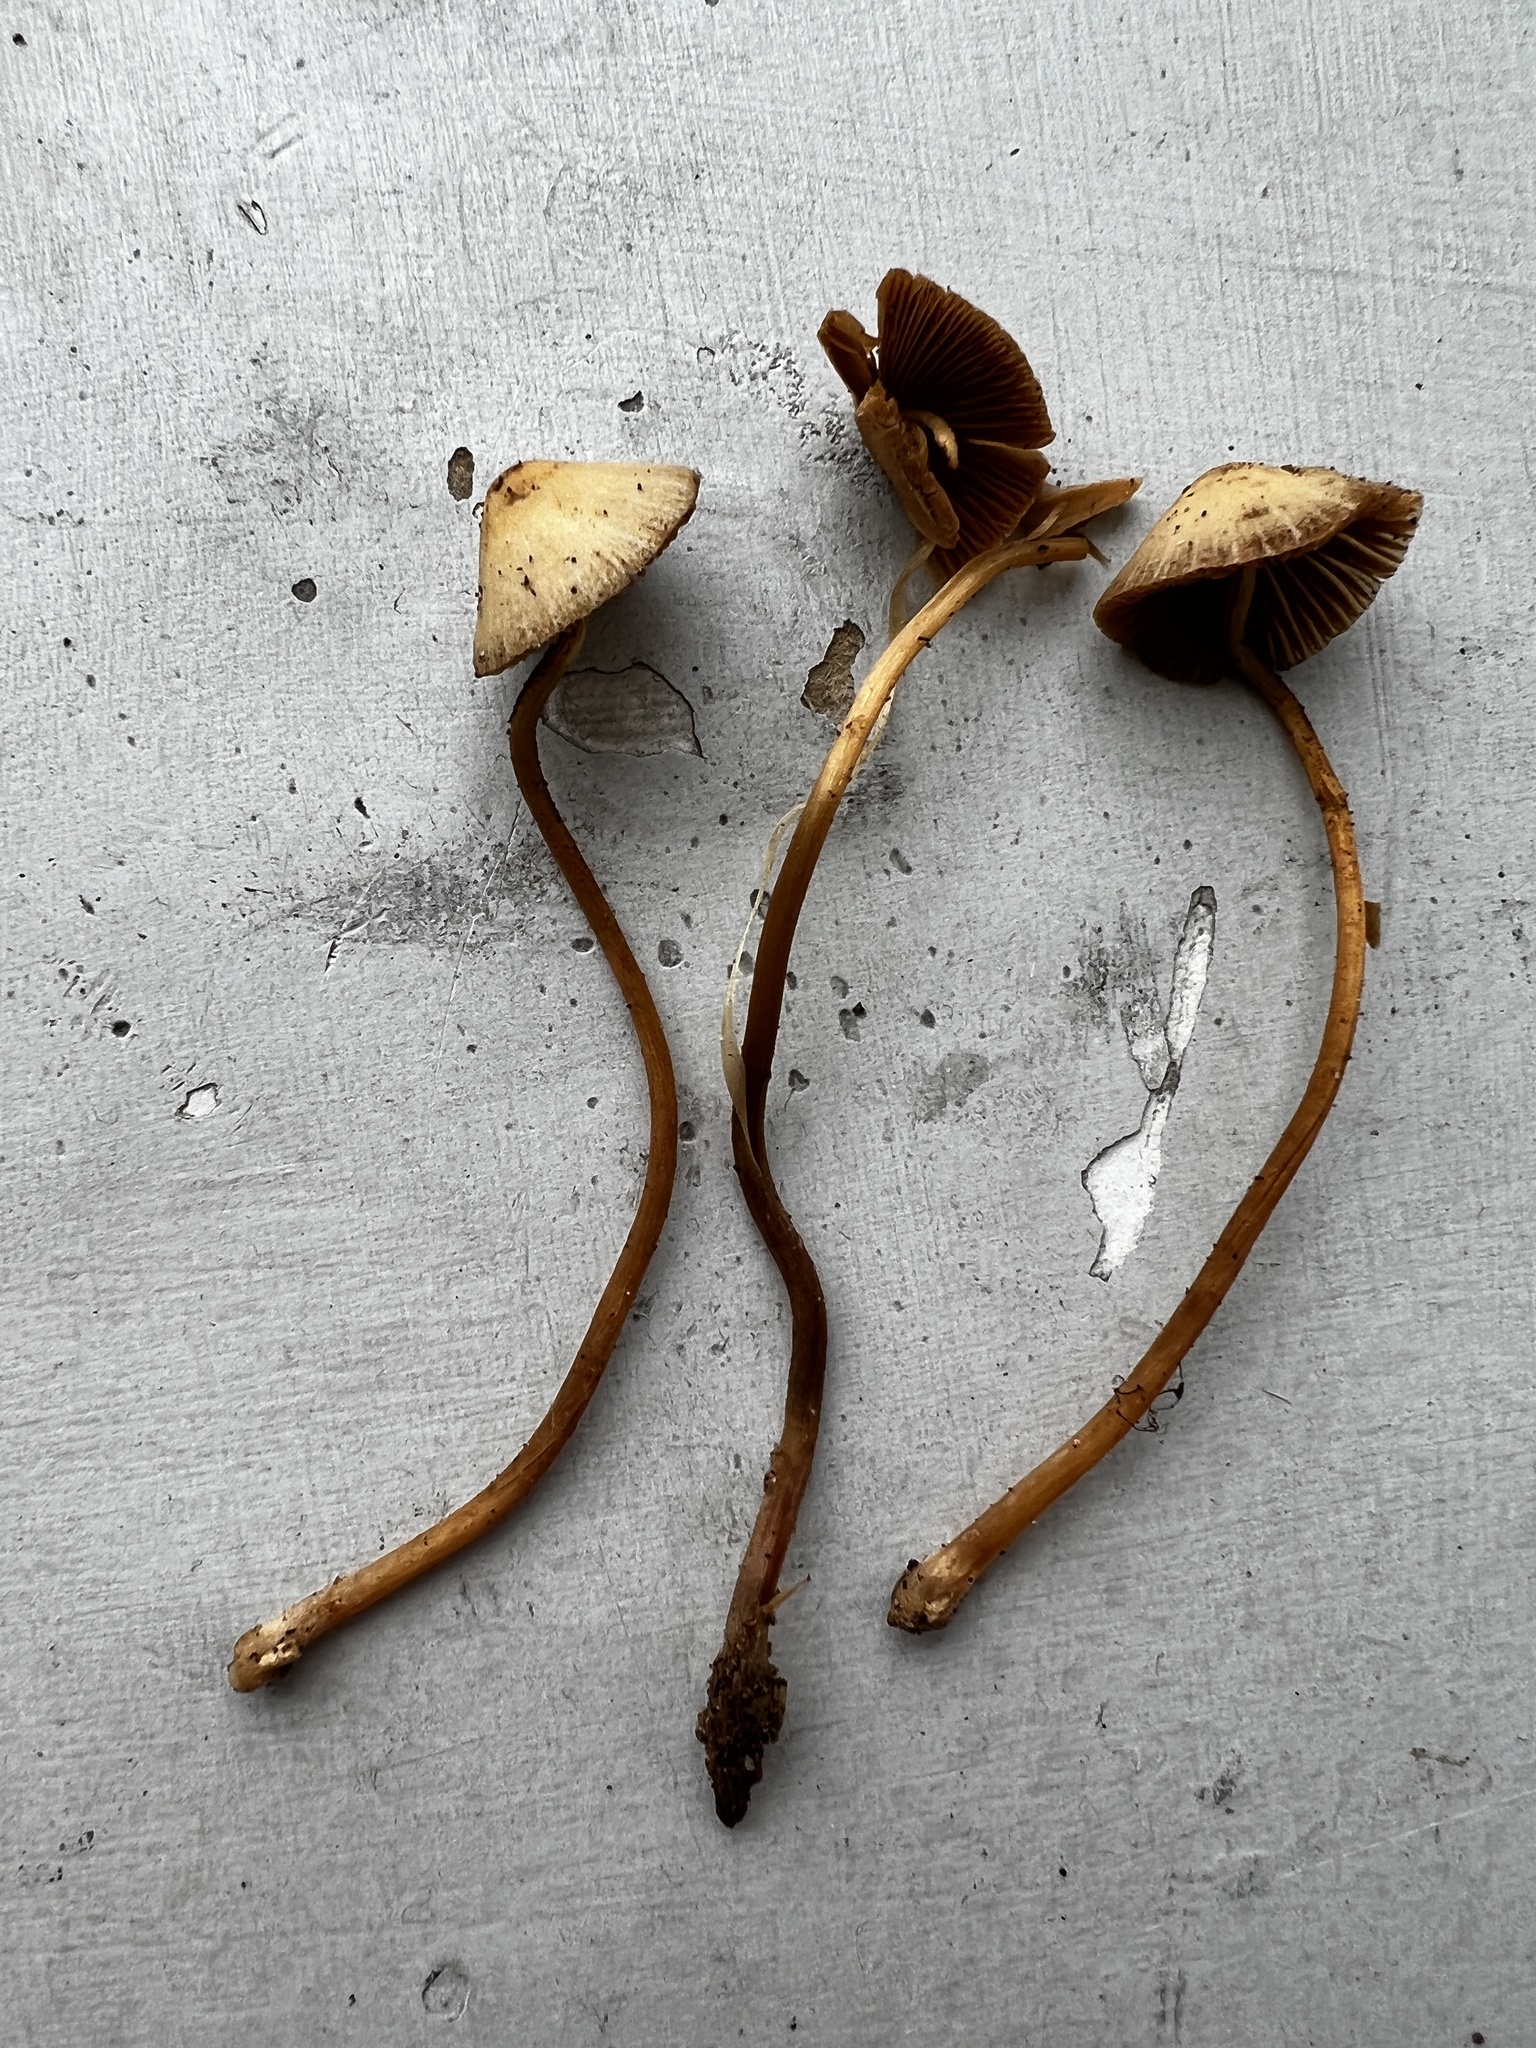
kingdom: Fungi
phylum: Basidiomycota
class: Agaricomycetes
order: Agaricales
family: Bolbitiaceae
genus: Conocybe
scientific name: Conocybe semiglobata
